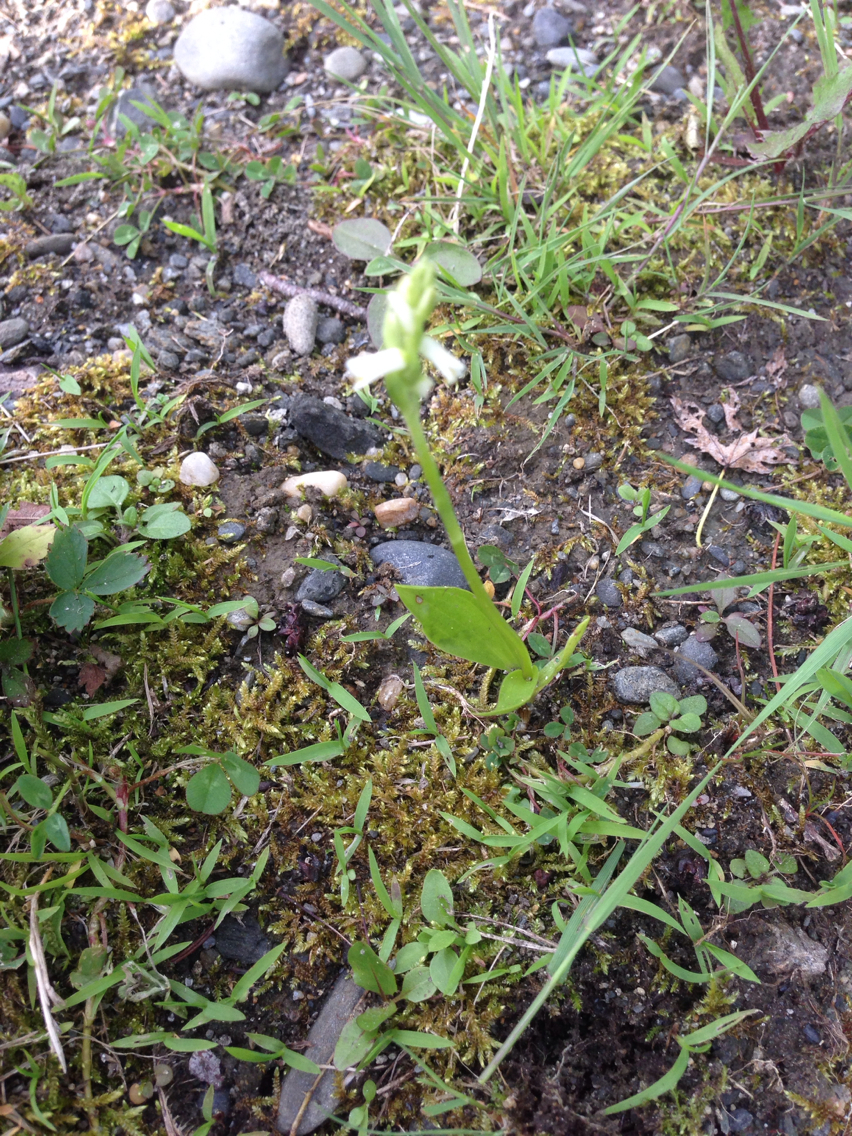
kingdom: Plantae
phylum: Tracheophyta
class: Liliopsida
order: Asparagales
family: Orchidaceae
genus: Spiranthes
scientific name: Spiranthes lucida
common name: Broad-leaved ladies'-tresses
